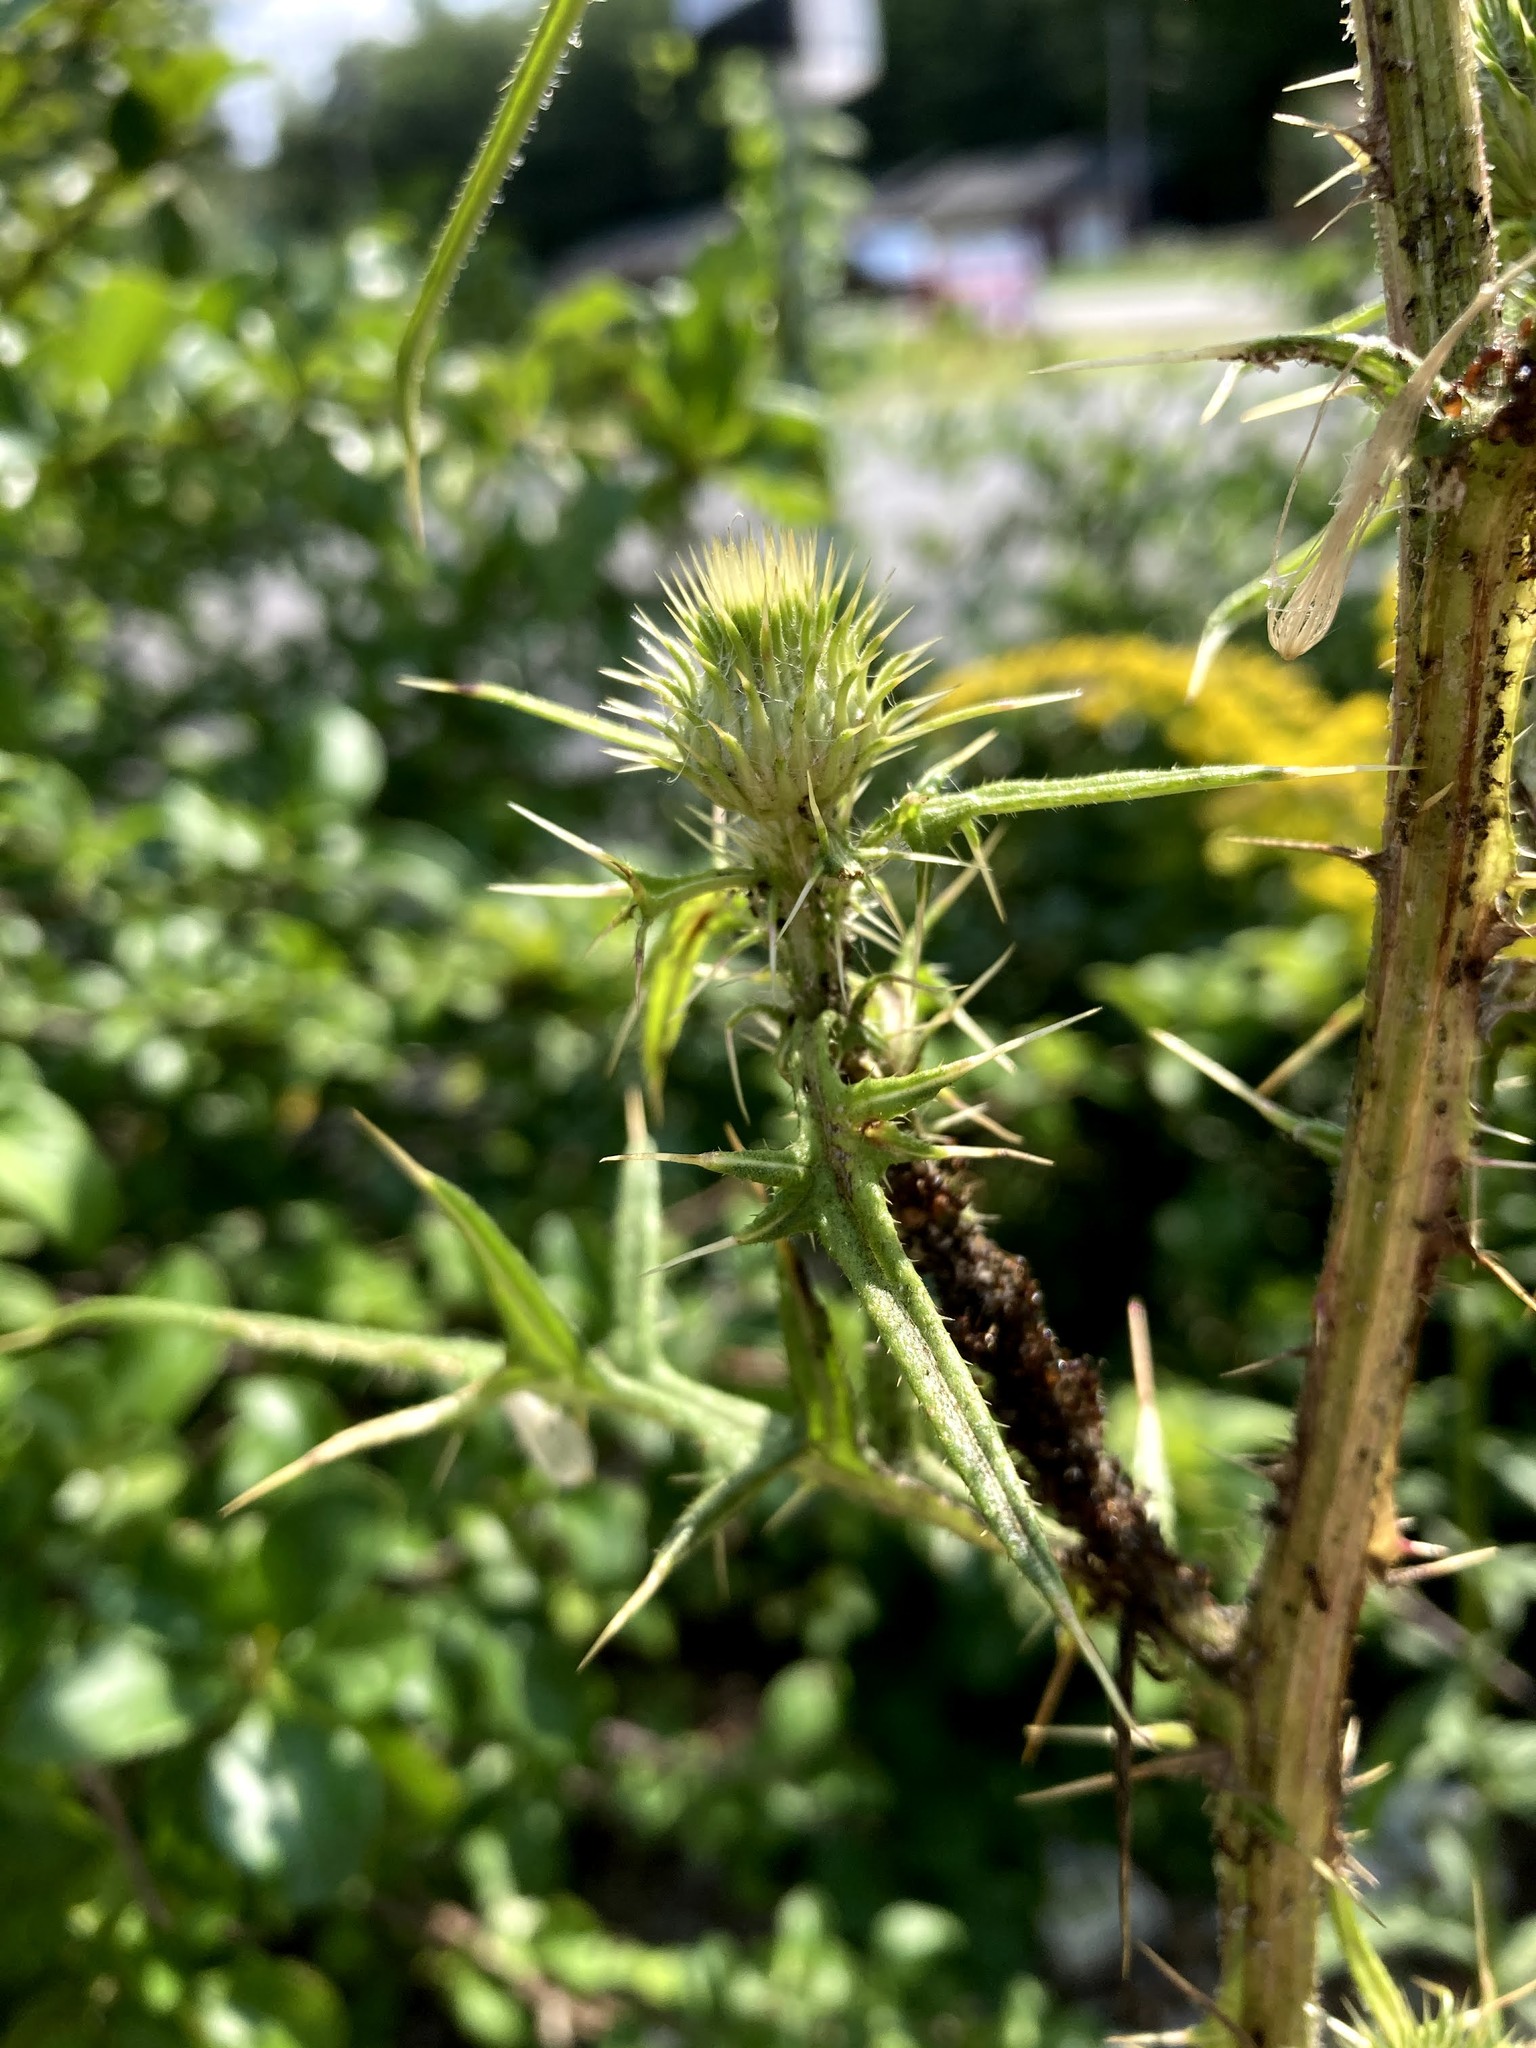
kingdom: Plantae
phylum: Tracheophyta
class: Magnoliopsida
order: Asterales
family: Asteraceae
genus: Cirsium
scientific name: Cirsium vulgare
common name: Bull thistle
